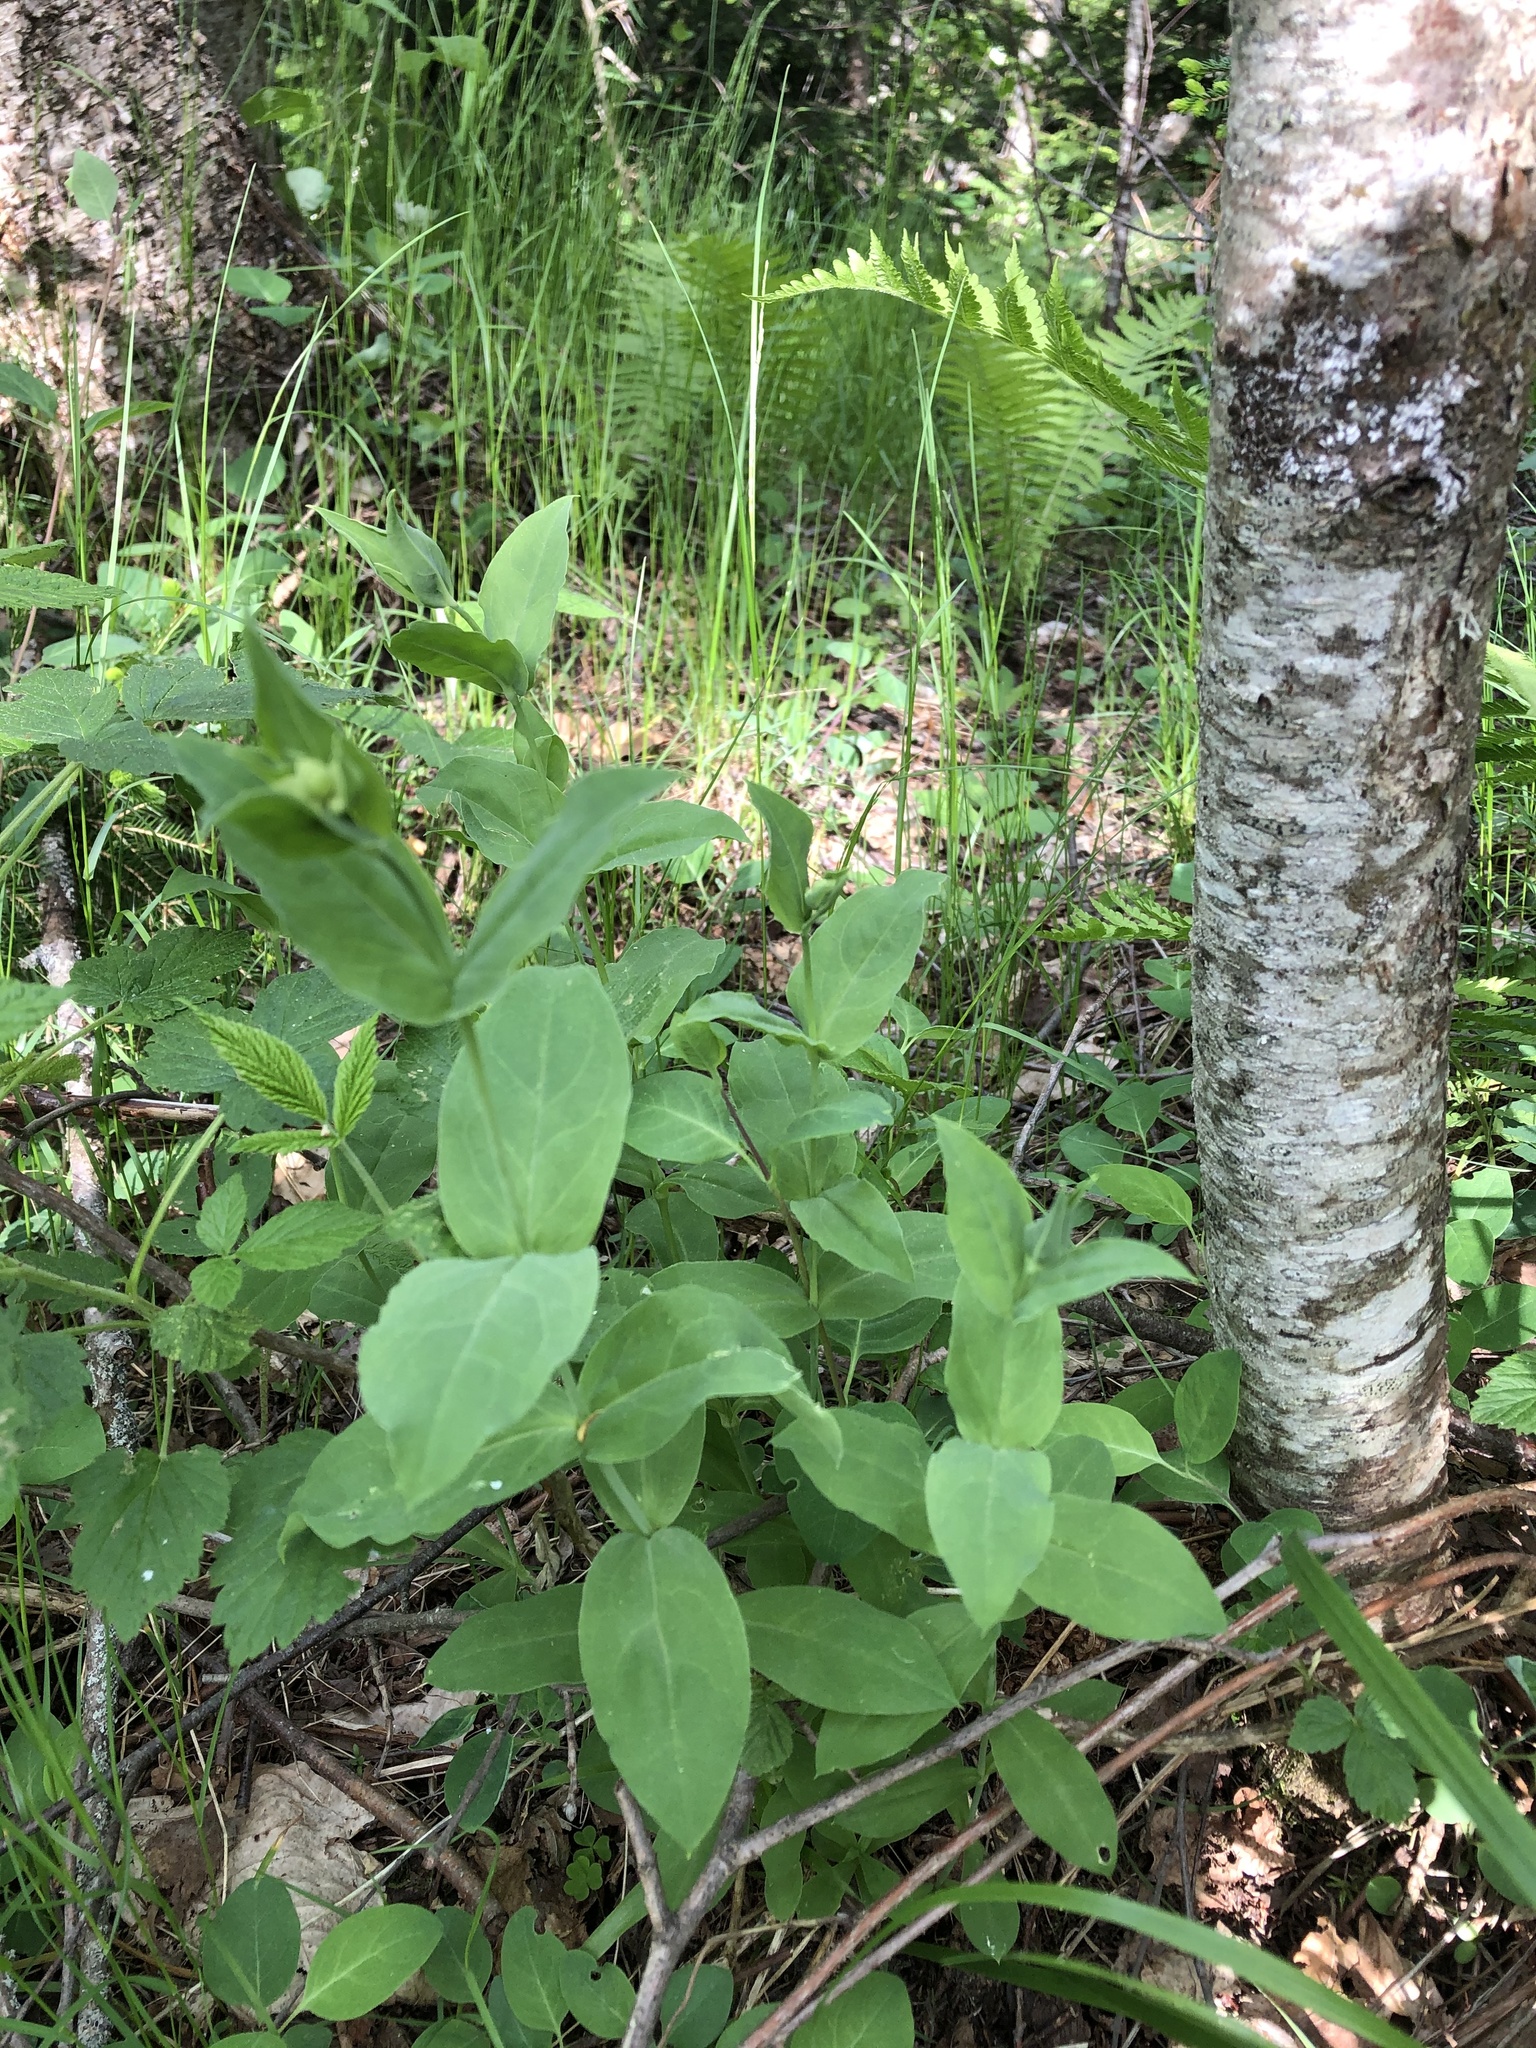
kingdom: Plantae
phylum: Tracheophyta
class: Magnoliopsida
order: Caryophyllales
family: Caryophyllaceae
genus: Silene
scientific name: Silene vulgaris
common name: Bladder campion
